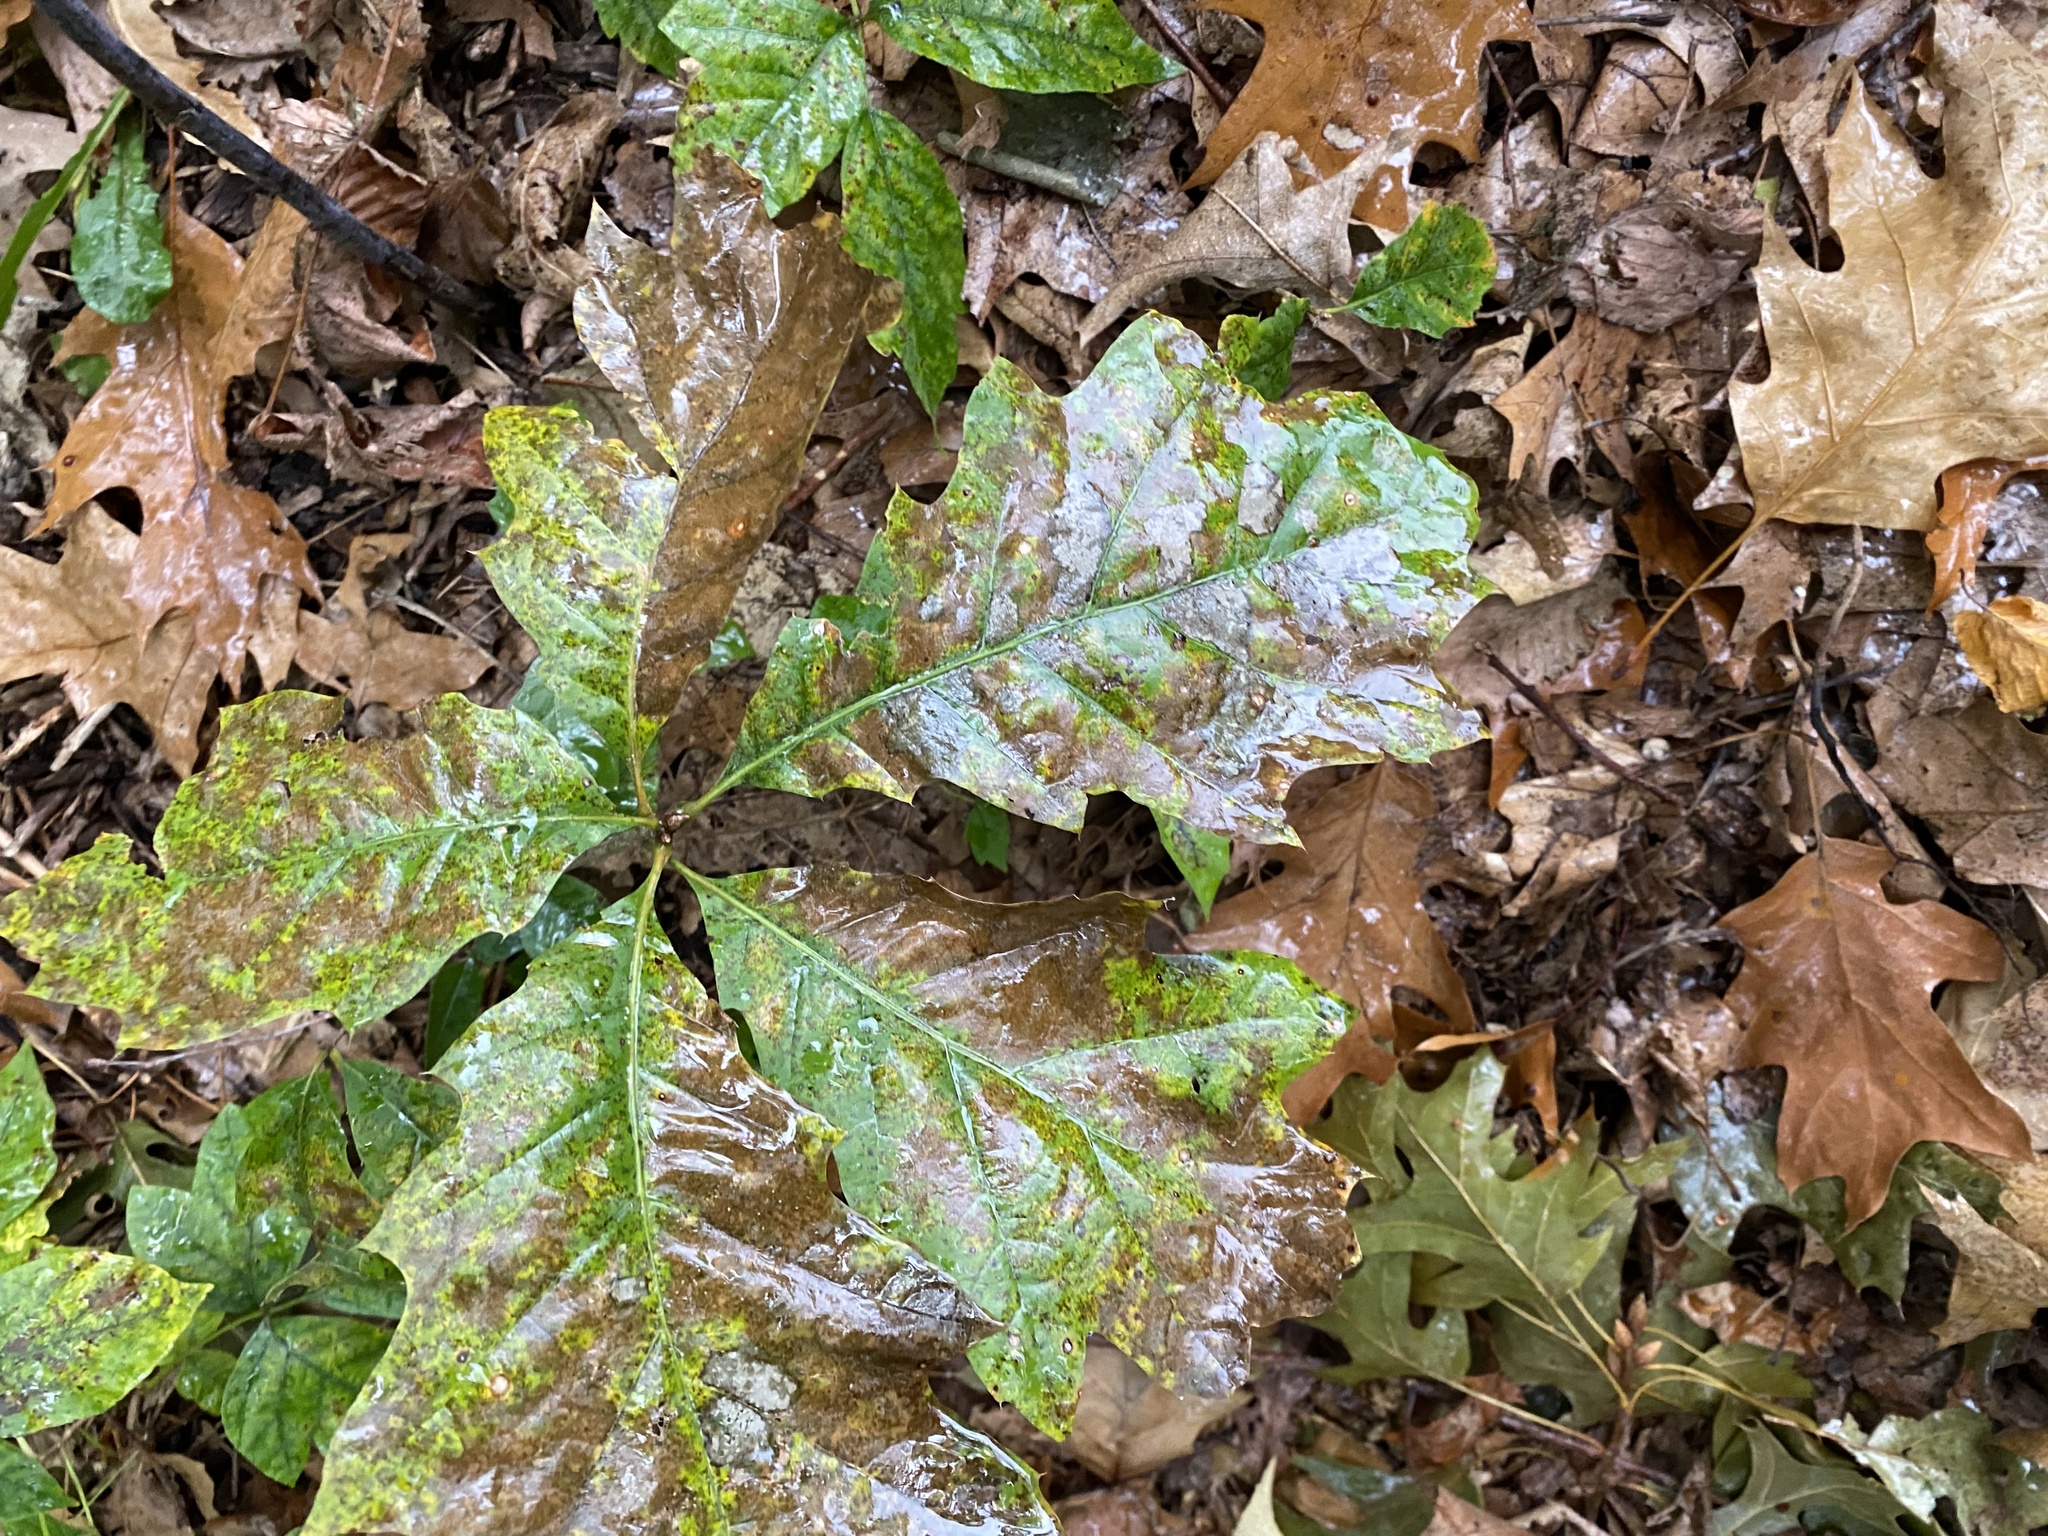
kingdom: Plantae
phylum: Tracheophyta
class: Magnoliopsida
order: Fagales
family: Fagaceae
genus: Quercus
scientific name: Quercus rubra
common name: Red oak
